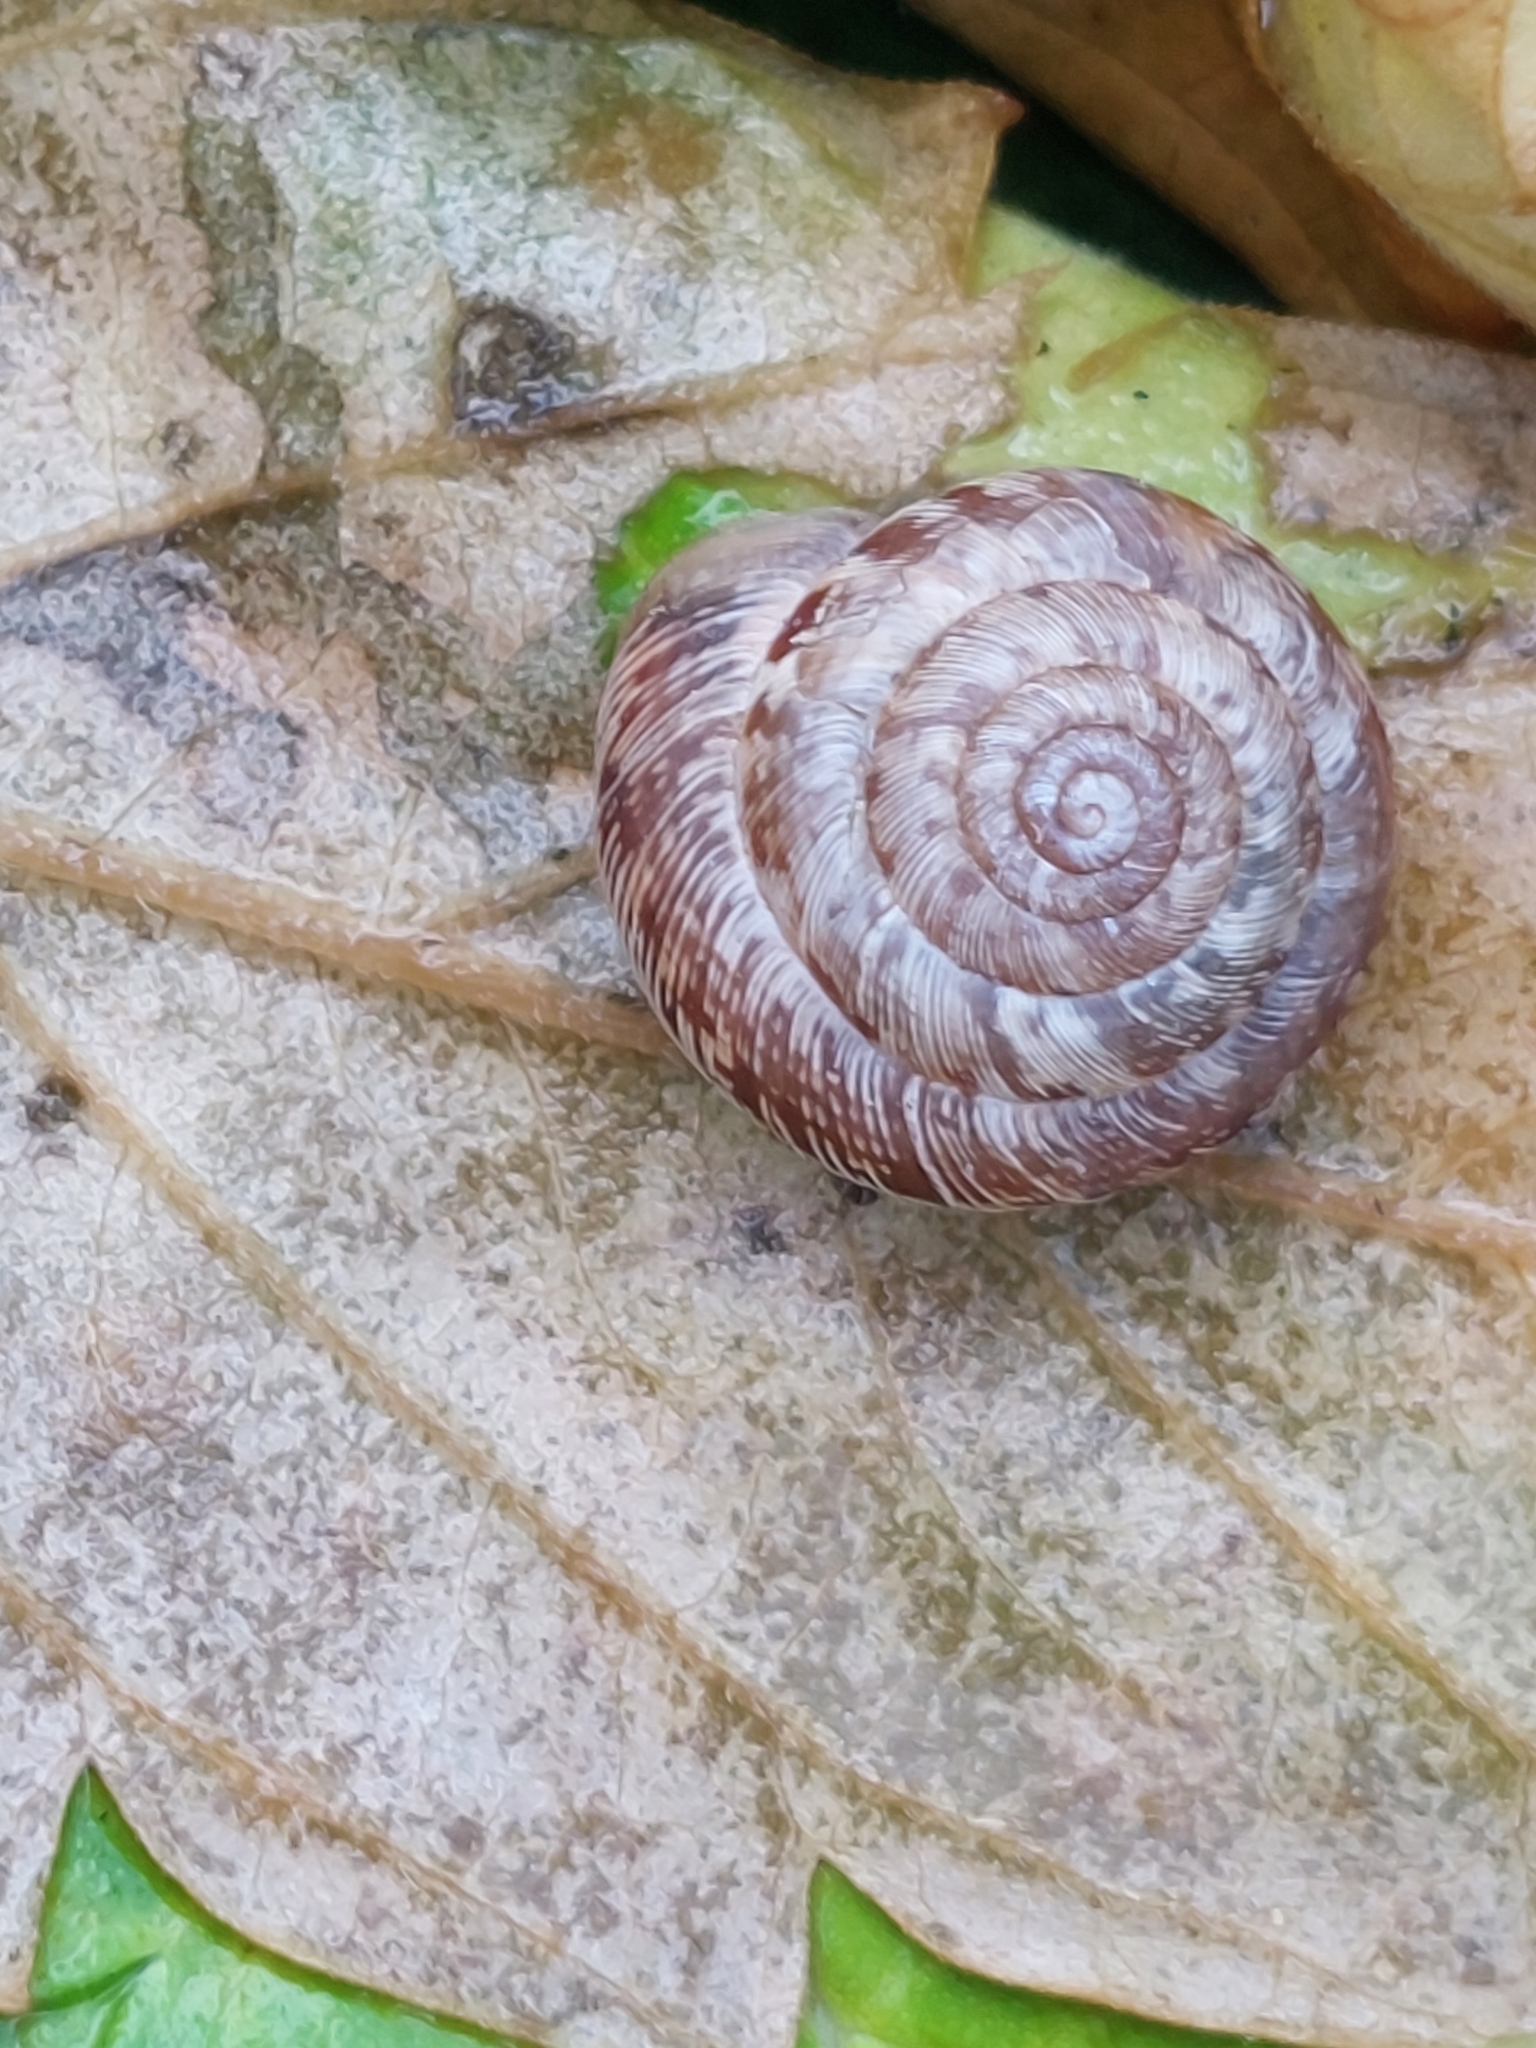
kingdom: Animalia
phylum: Mollusca
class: Gastropoda
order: Stylommatophora
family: Geomitridae
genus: Xeroplexa
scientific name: Xeroplexa intersecta
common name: Wrinkled snail
